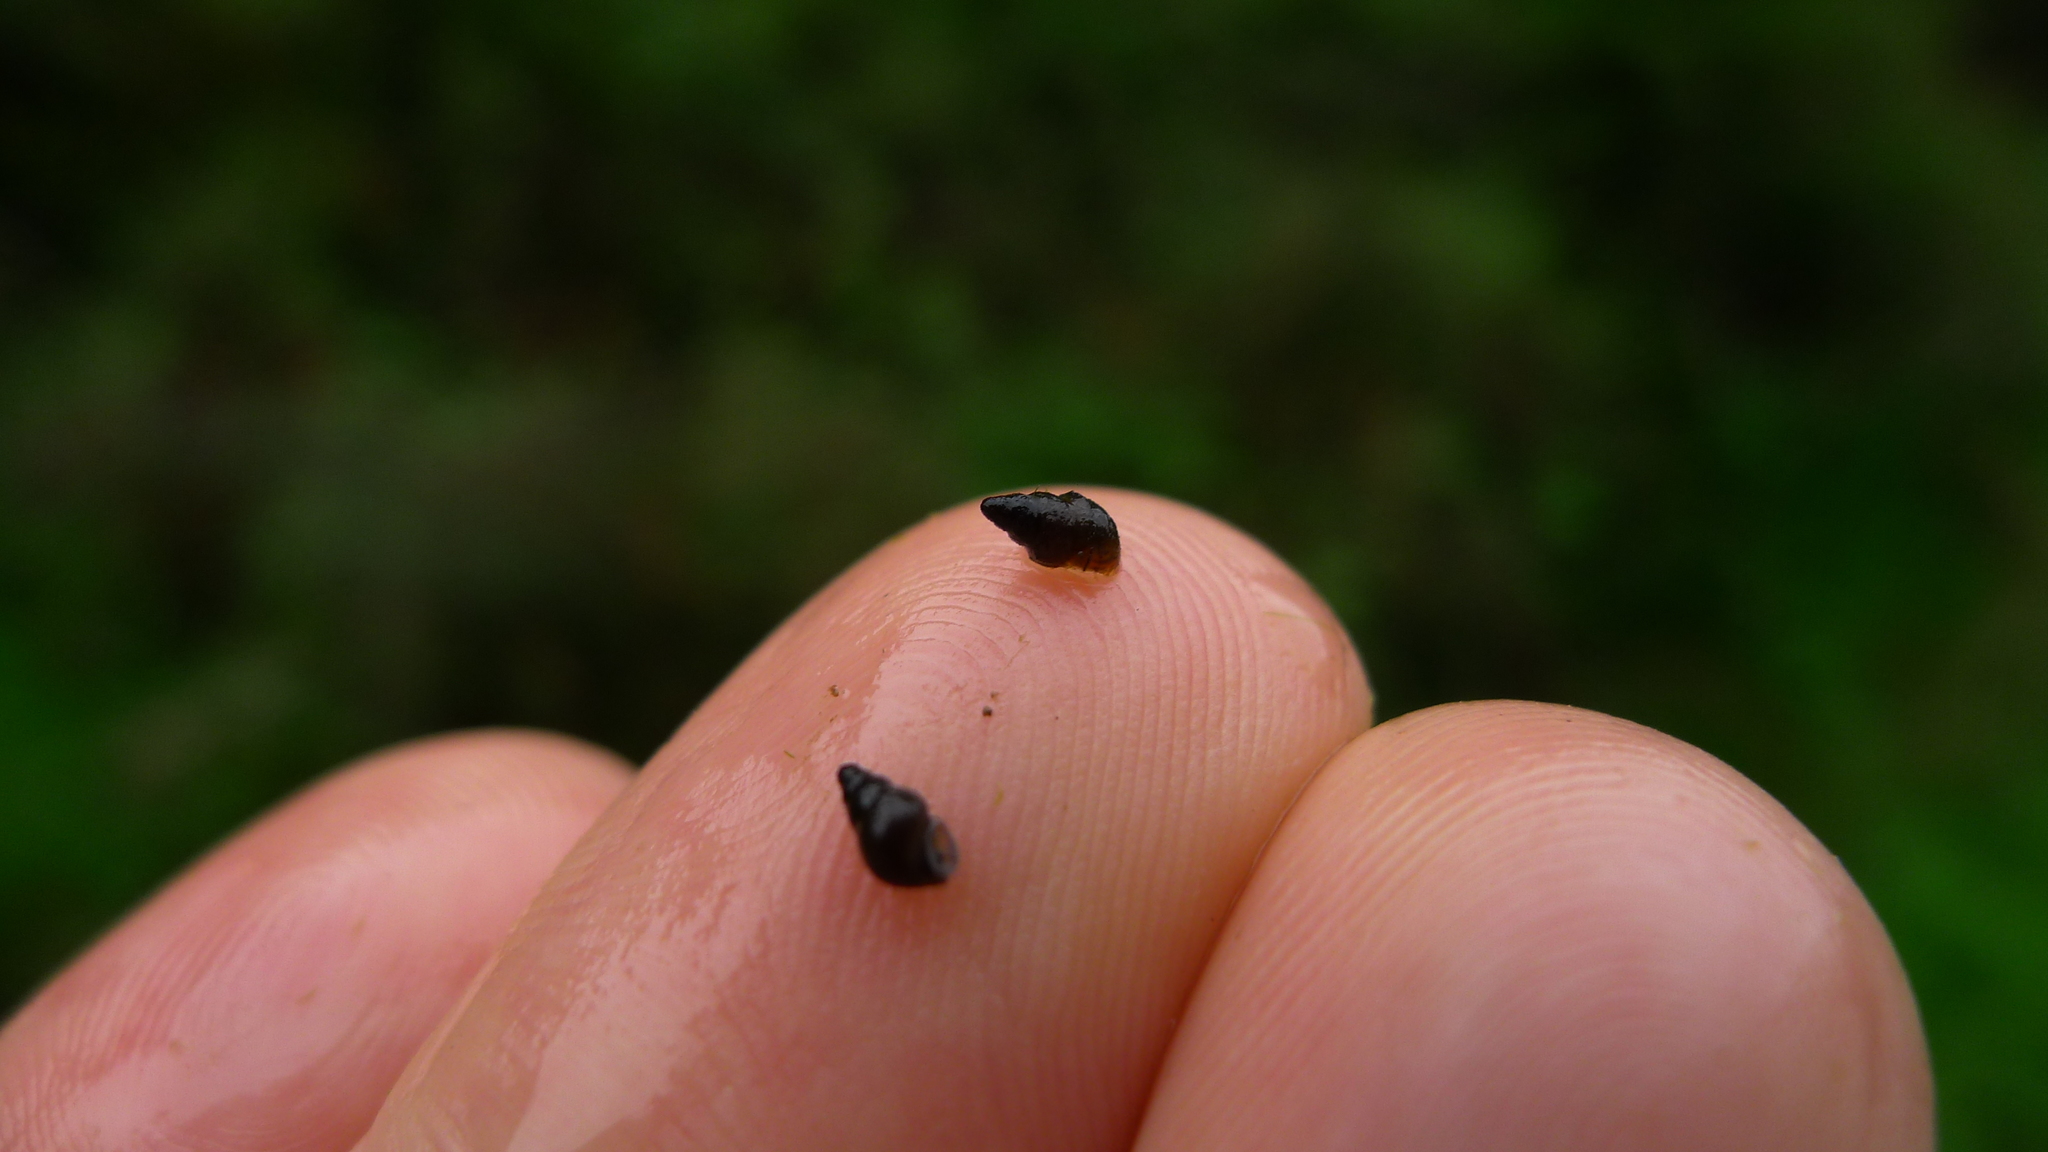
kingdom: Animalia
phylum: Mollusca
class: Gastropoda
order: Littorinimorpha
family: Tateidae
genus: Potamopyrgus
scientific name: Potamopyrgus antipodarum
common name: Jenkins' spire snail
